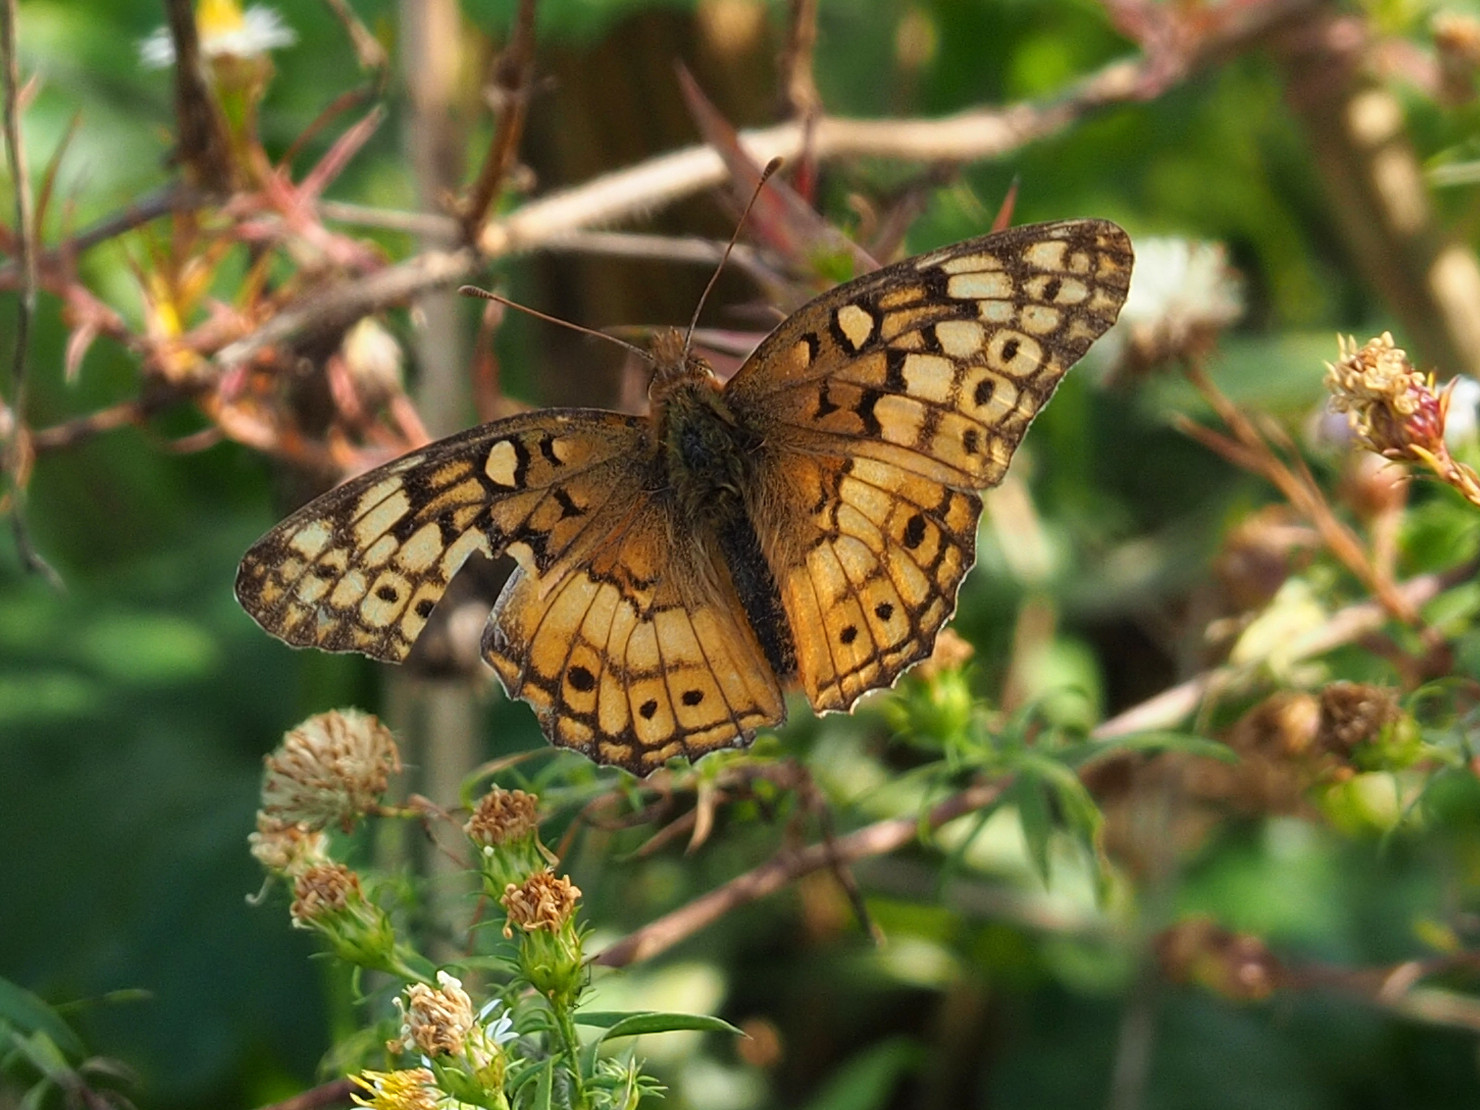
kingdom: Animalia
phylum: Arthropoda
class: Insecta
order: Lepidoptera
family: Nymphalidae
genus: Euptoieta
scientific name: Euptoieta claudia
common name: Variegated fritillary
